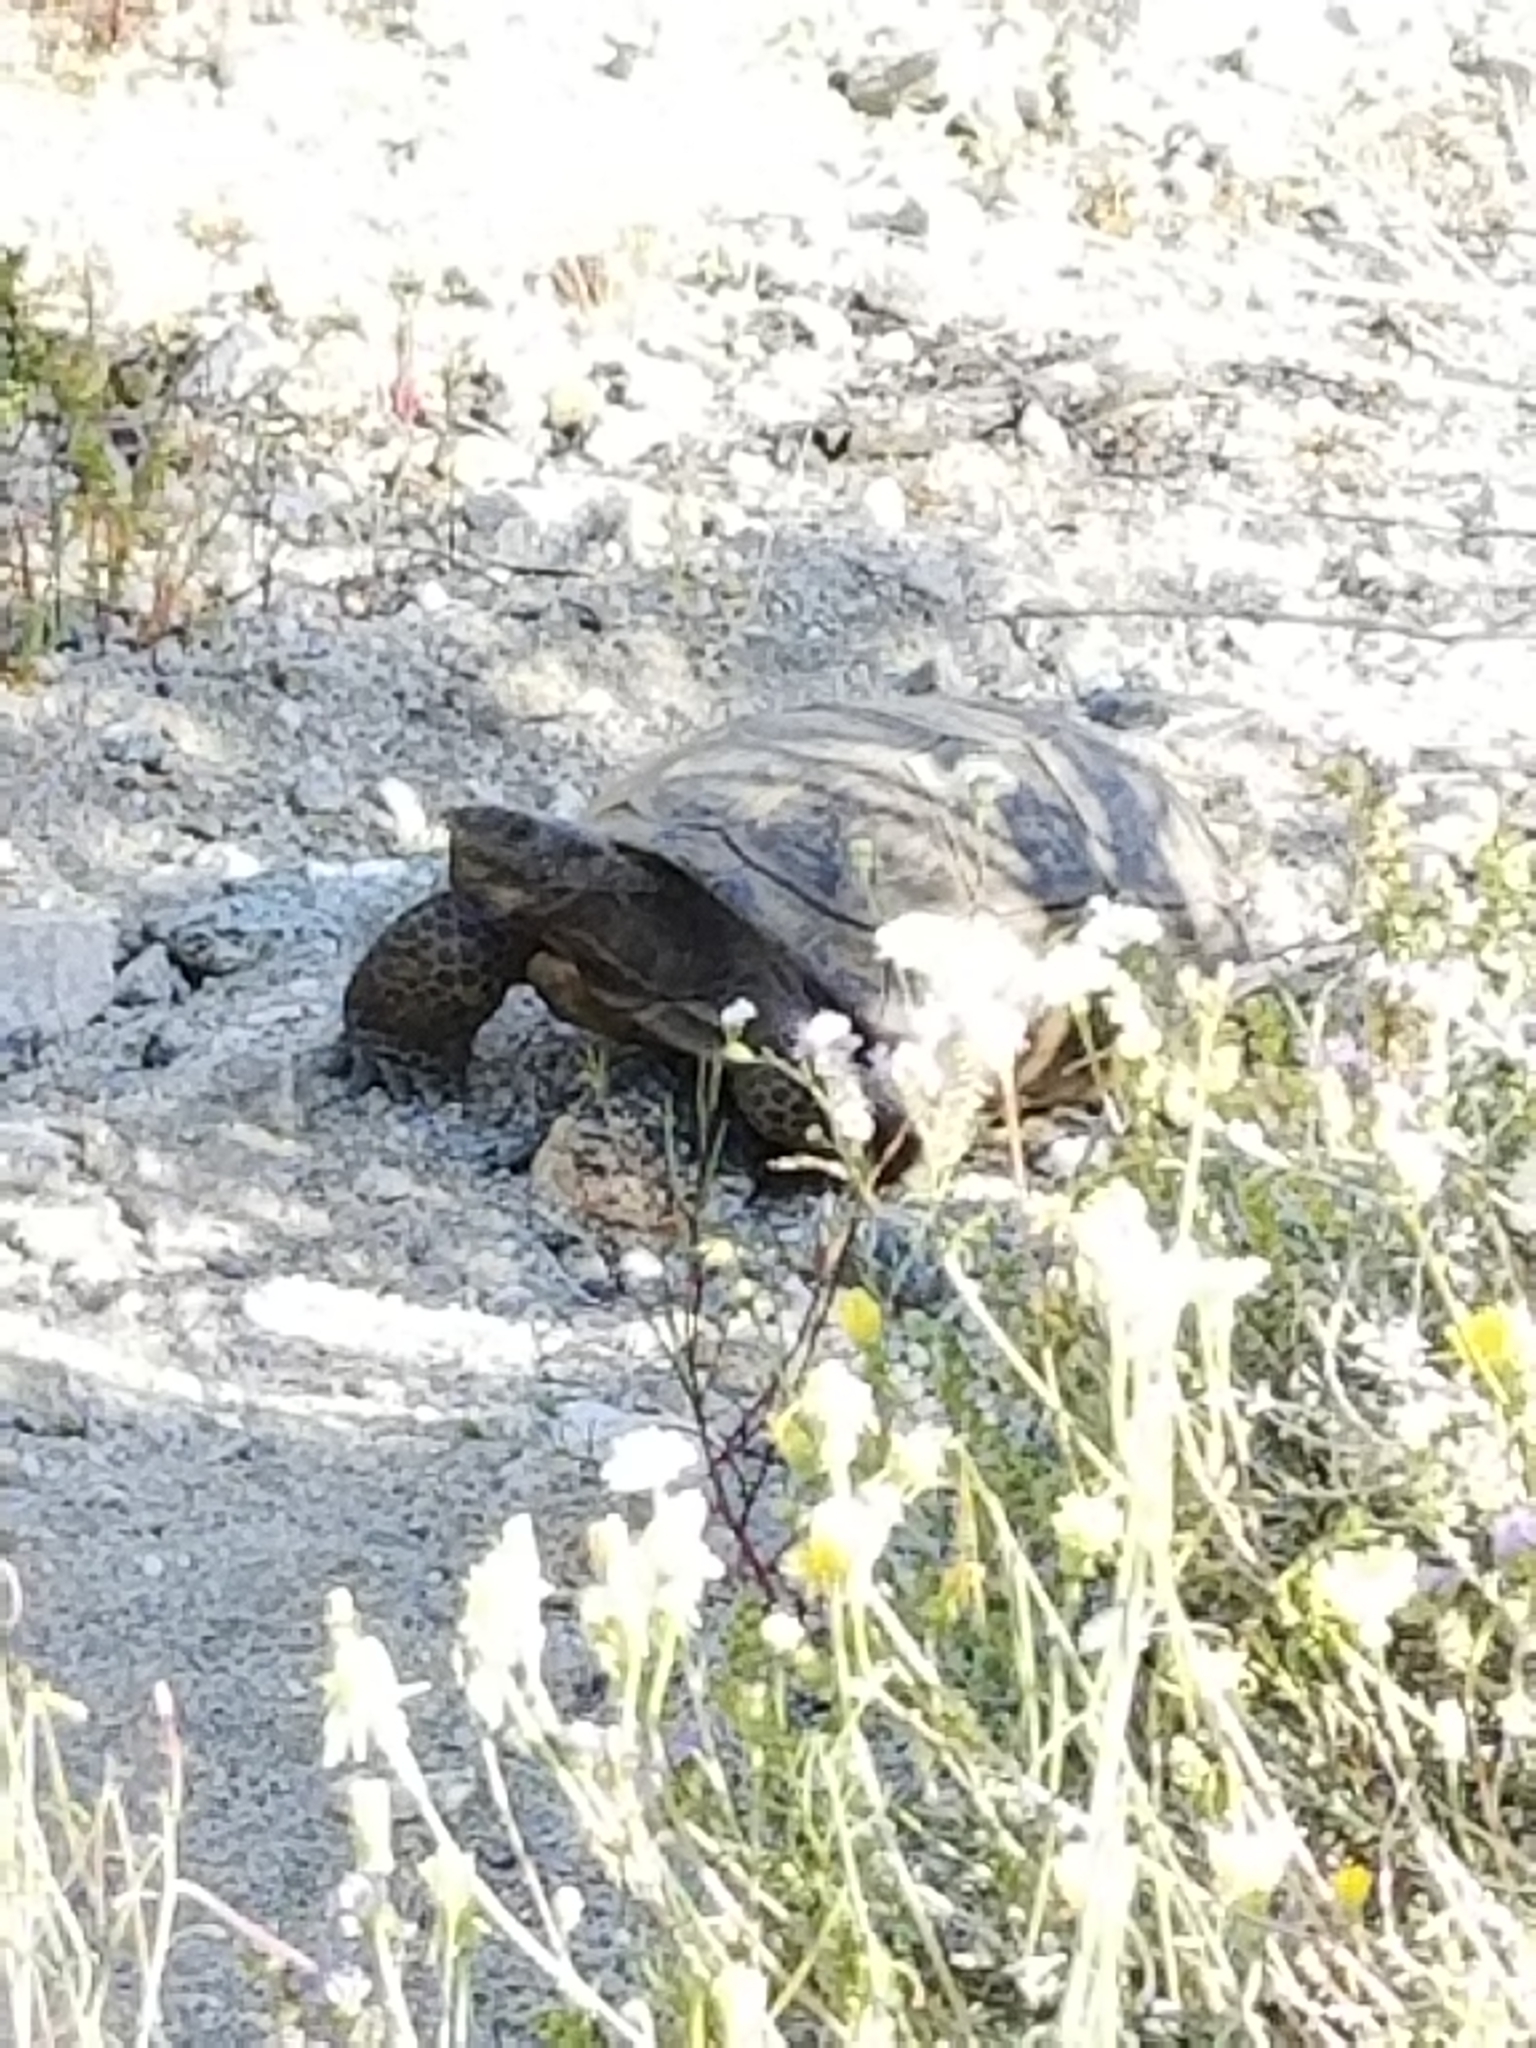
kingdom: Animalia
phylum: Chordata
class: Testudines
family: Testudinidae
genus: Gopherus
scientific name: Gopherus agassizii
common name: Mojave desert tortoise
